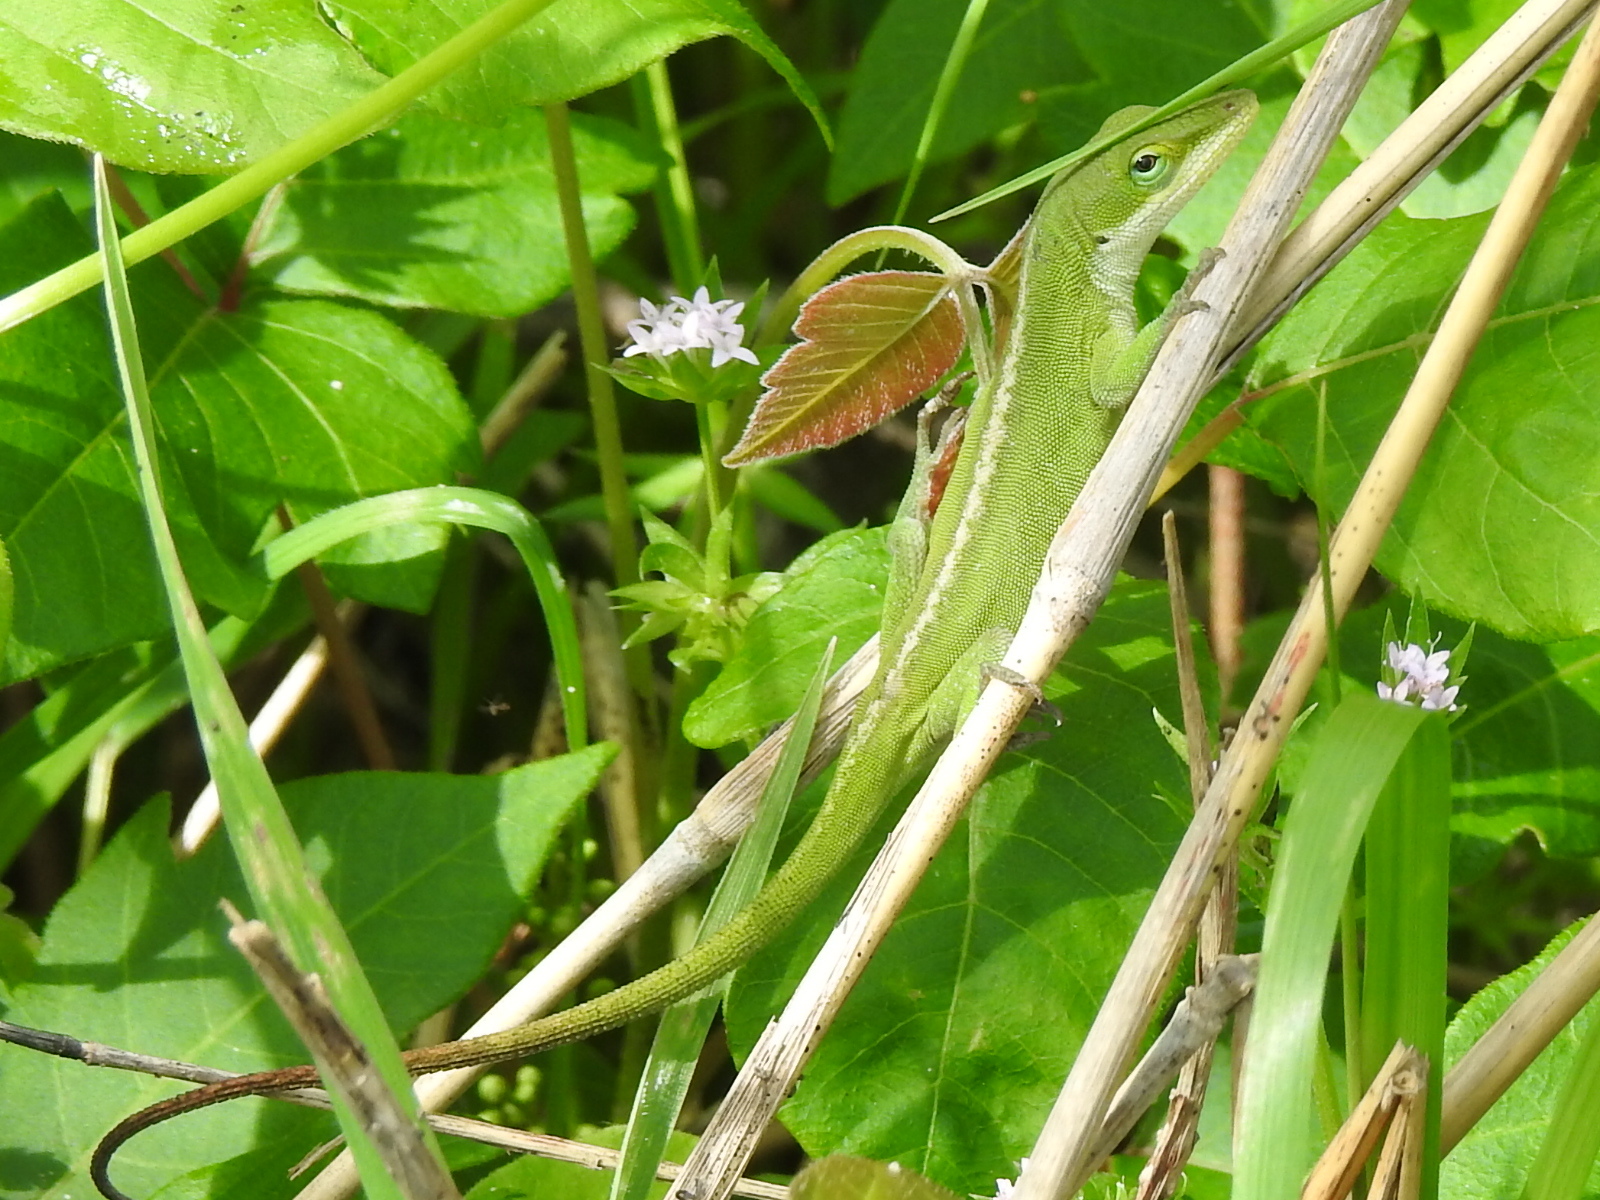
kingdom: Animalia
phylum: Chordata
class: Squamata
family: Dactyloidae
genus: Anolis
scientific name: Anolis carolinensis
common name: Green anole
